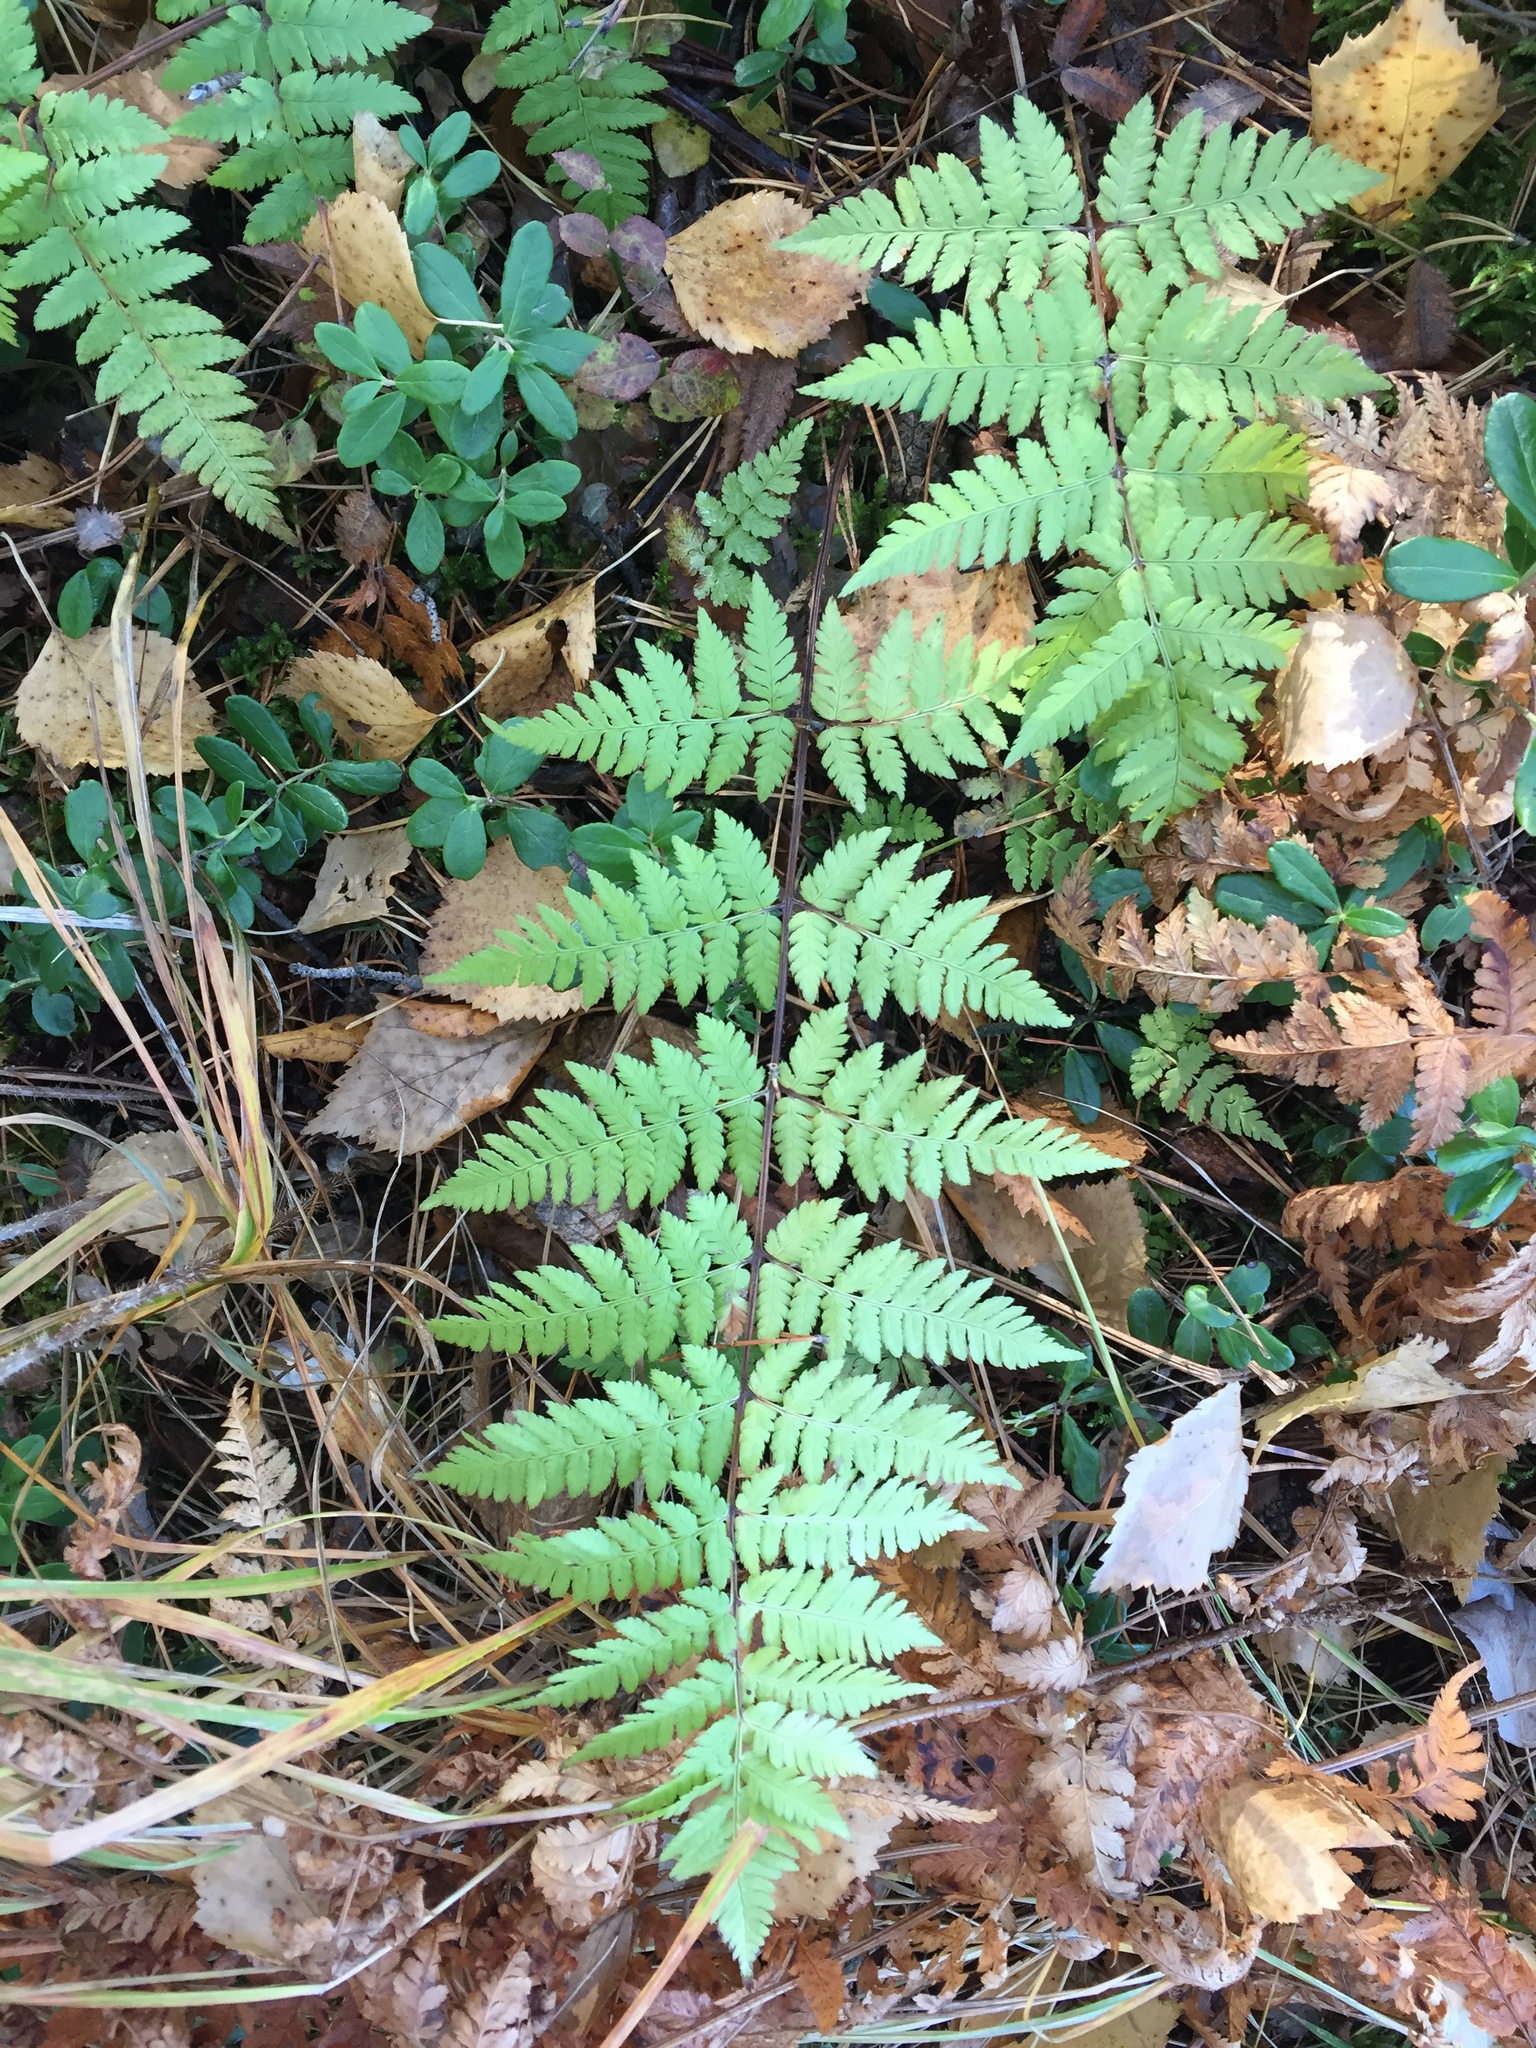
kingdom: Plantae
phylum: Tracheophyta
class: Polypodiopsida
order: Polypodiales
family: Dryopteridaceae
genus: Dryopteris
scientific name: Dryopteris carthusiana
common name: Narrow buckler-fern
